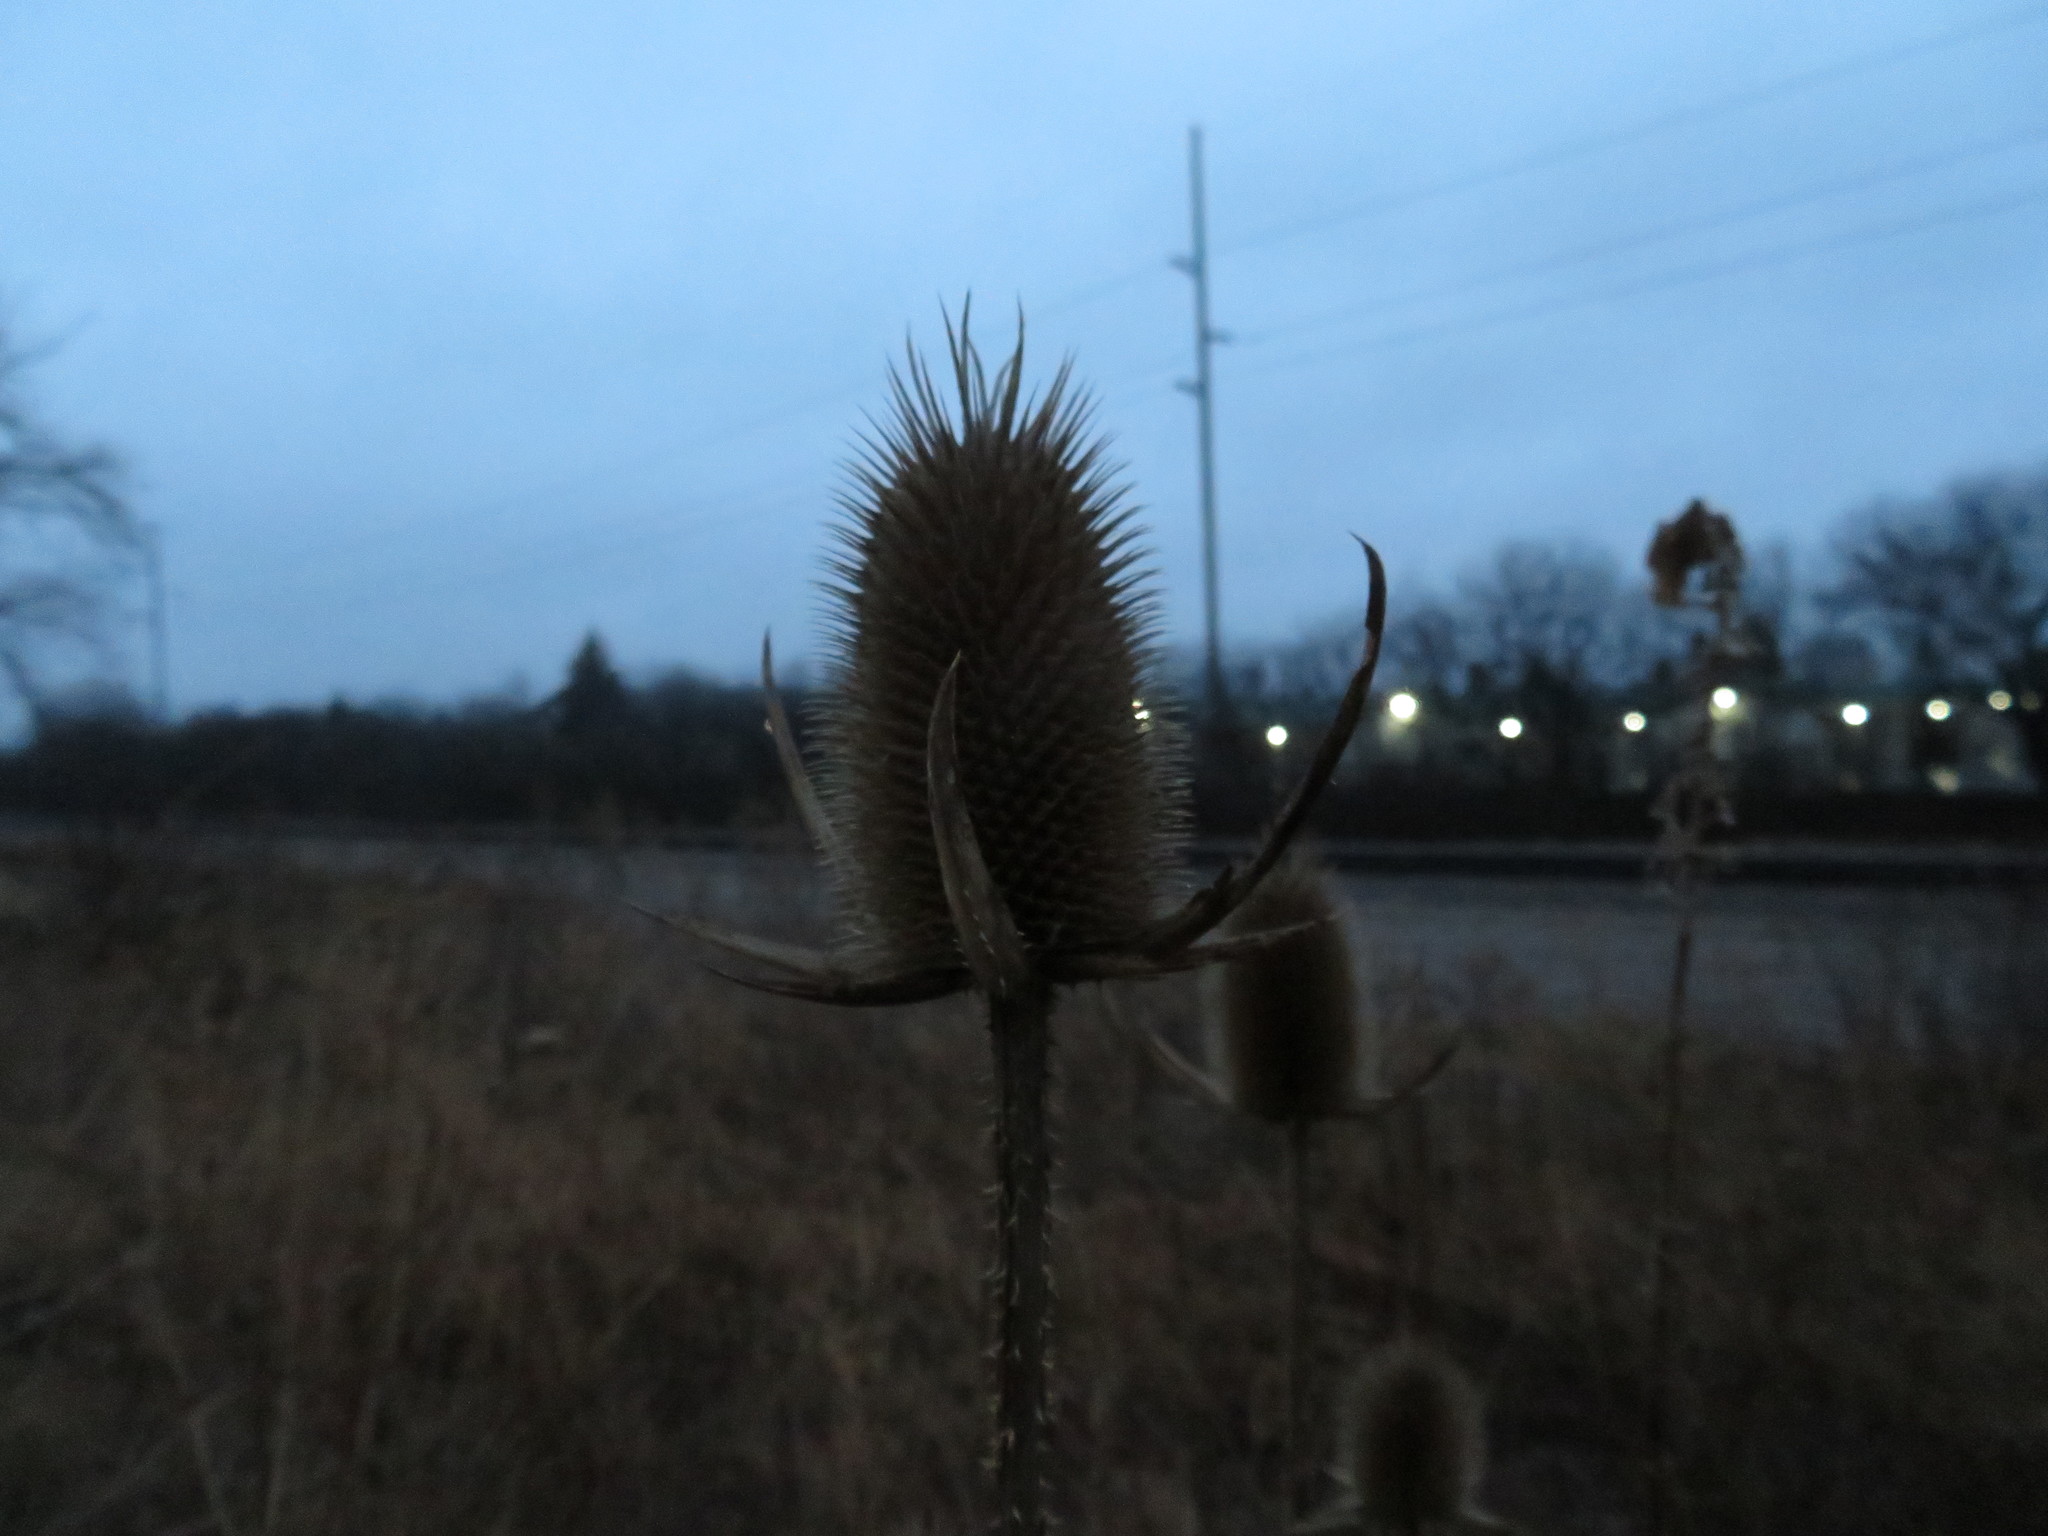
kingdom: Plantae
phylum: Tracheophyta
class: Magnoliopsida
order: Dipsacales
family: Caprifoliaceae
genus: Dipsacus
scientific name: Dipsacus laciniatus
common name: Cut-leaved teasel
